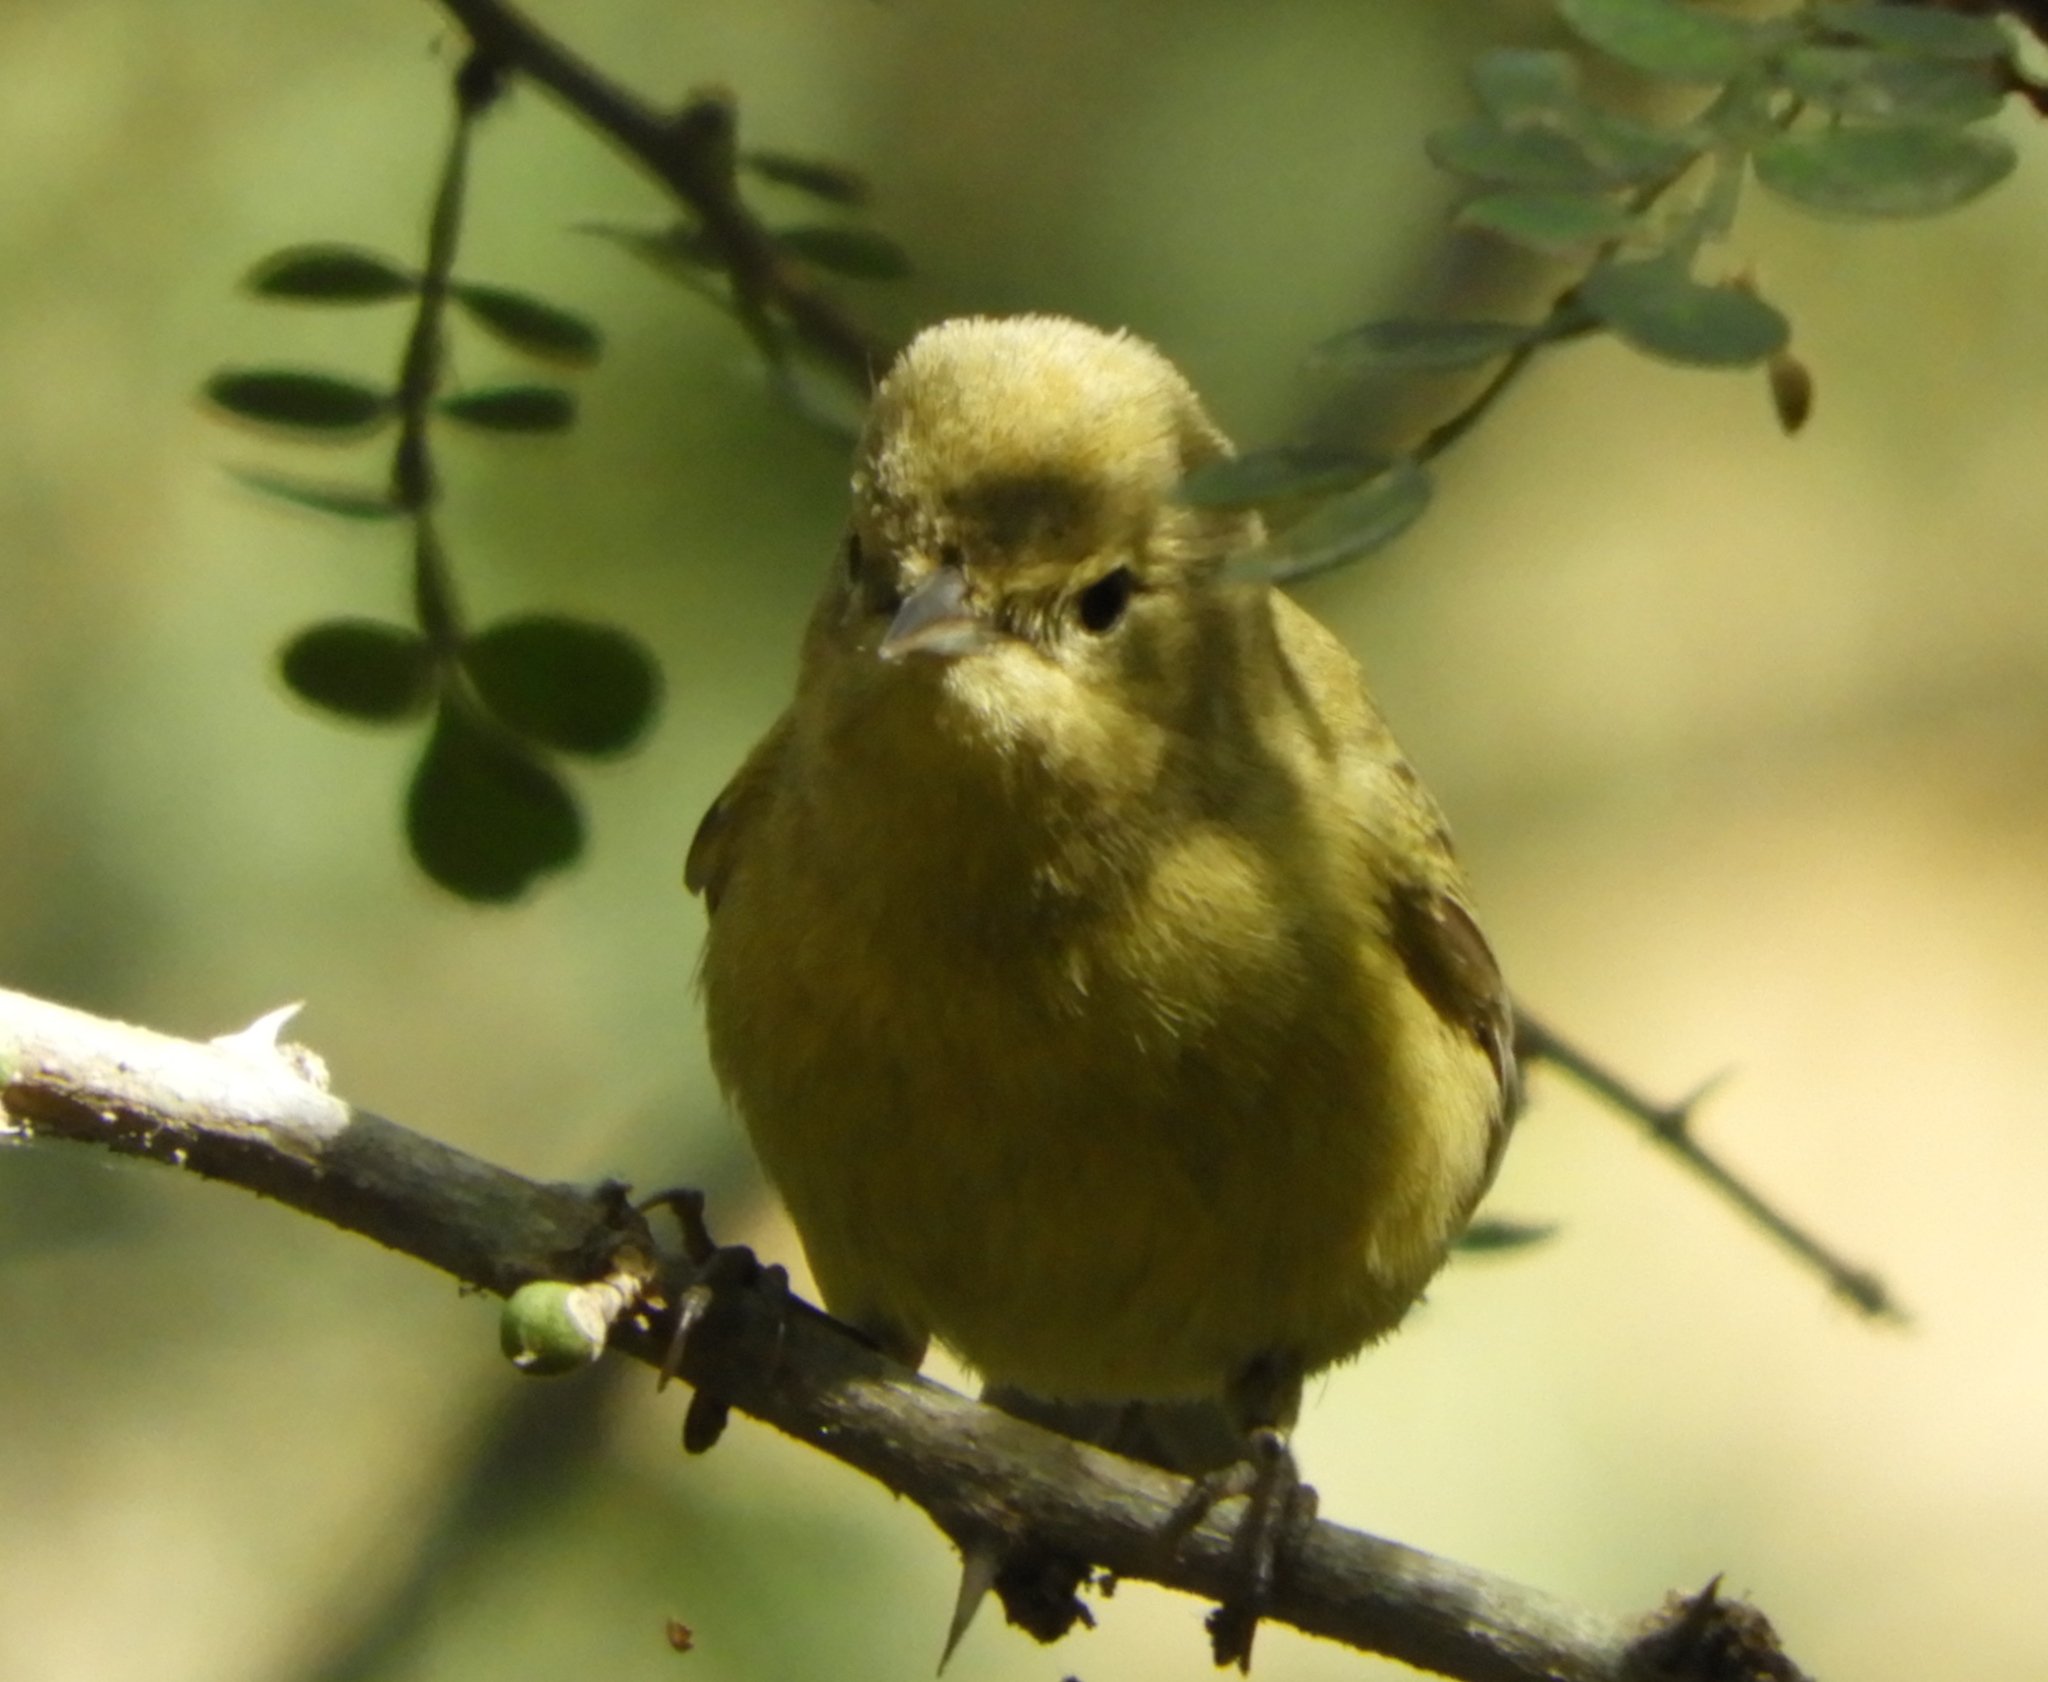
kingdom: Animalia
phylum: Chordata
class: Aves
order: Passeriformes
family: Parulidae
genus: Leiothlypis
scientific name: Leiothlypis celata
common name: Orange-crowned warbler
